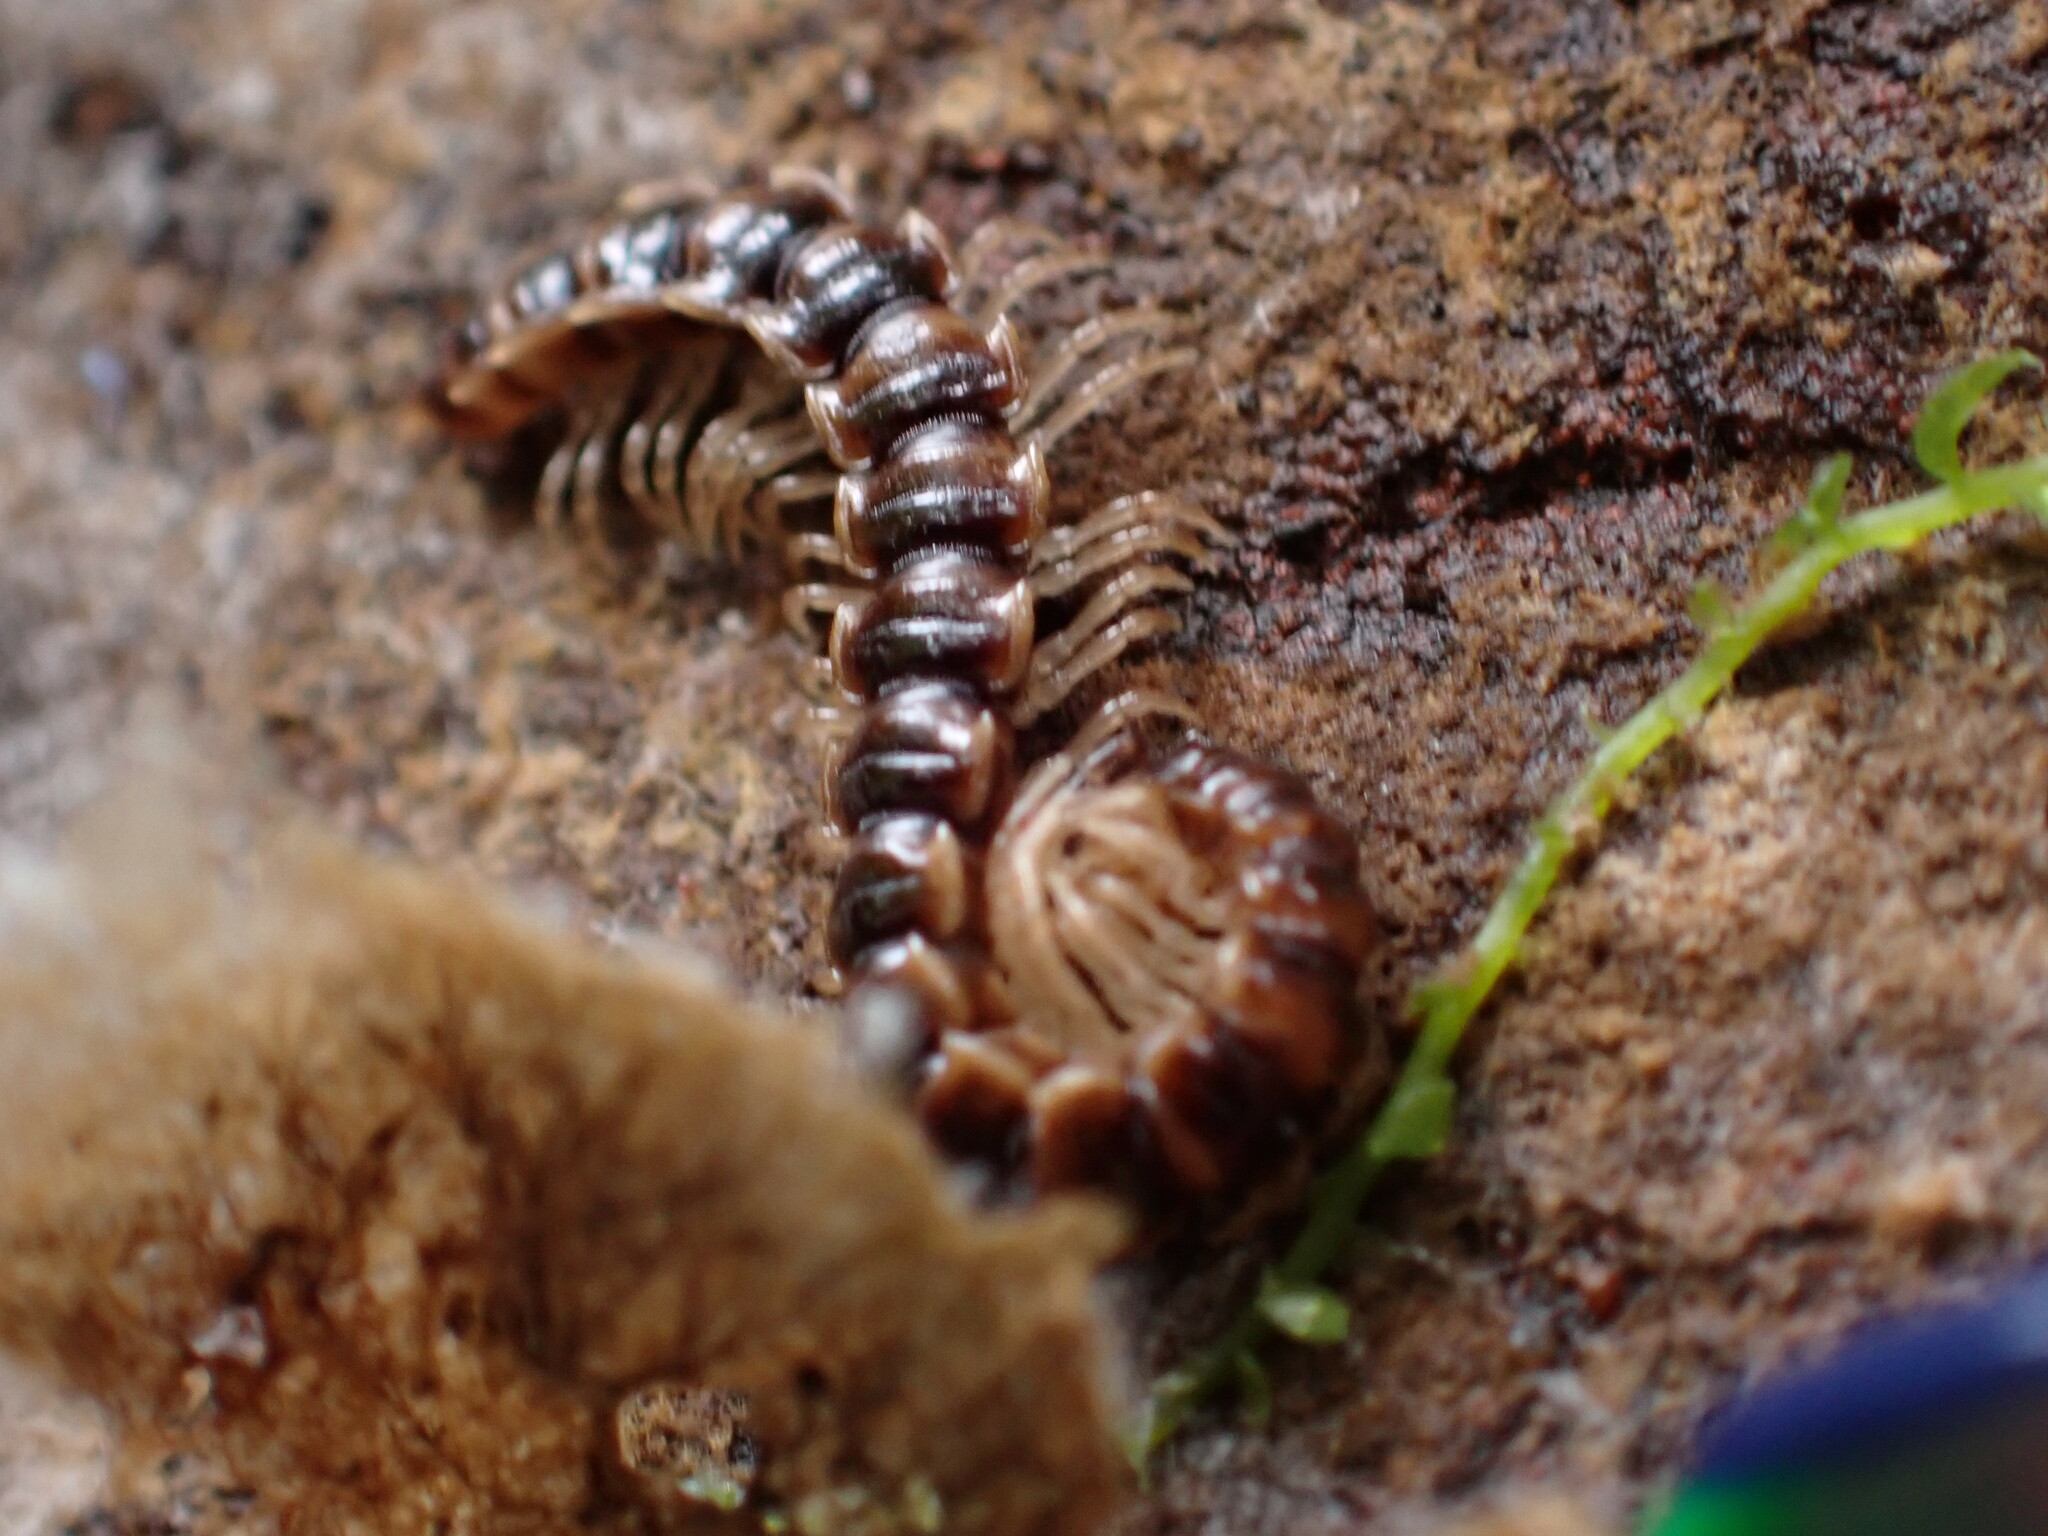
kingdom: Animalia
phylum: Arthropoda
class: Diplopoda
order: Polydesmida
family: Paradoxosomatidae
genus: Oxidus
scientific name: Oxidus gracilis
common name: Greenhouse millipede
